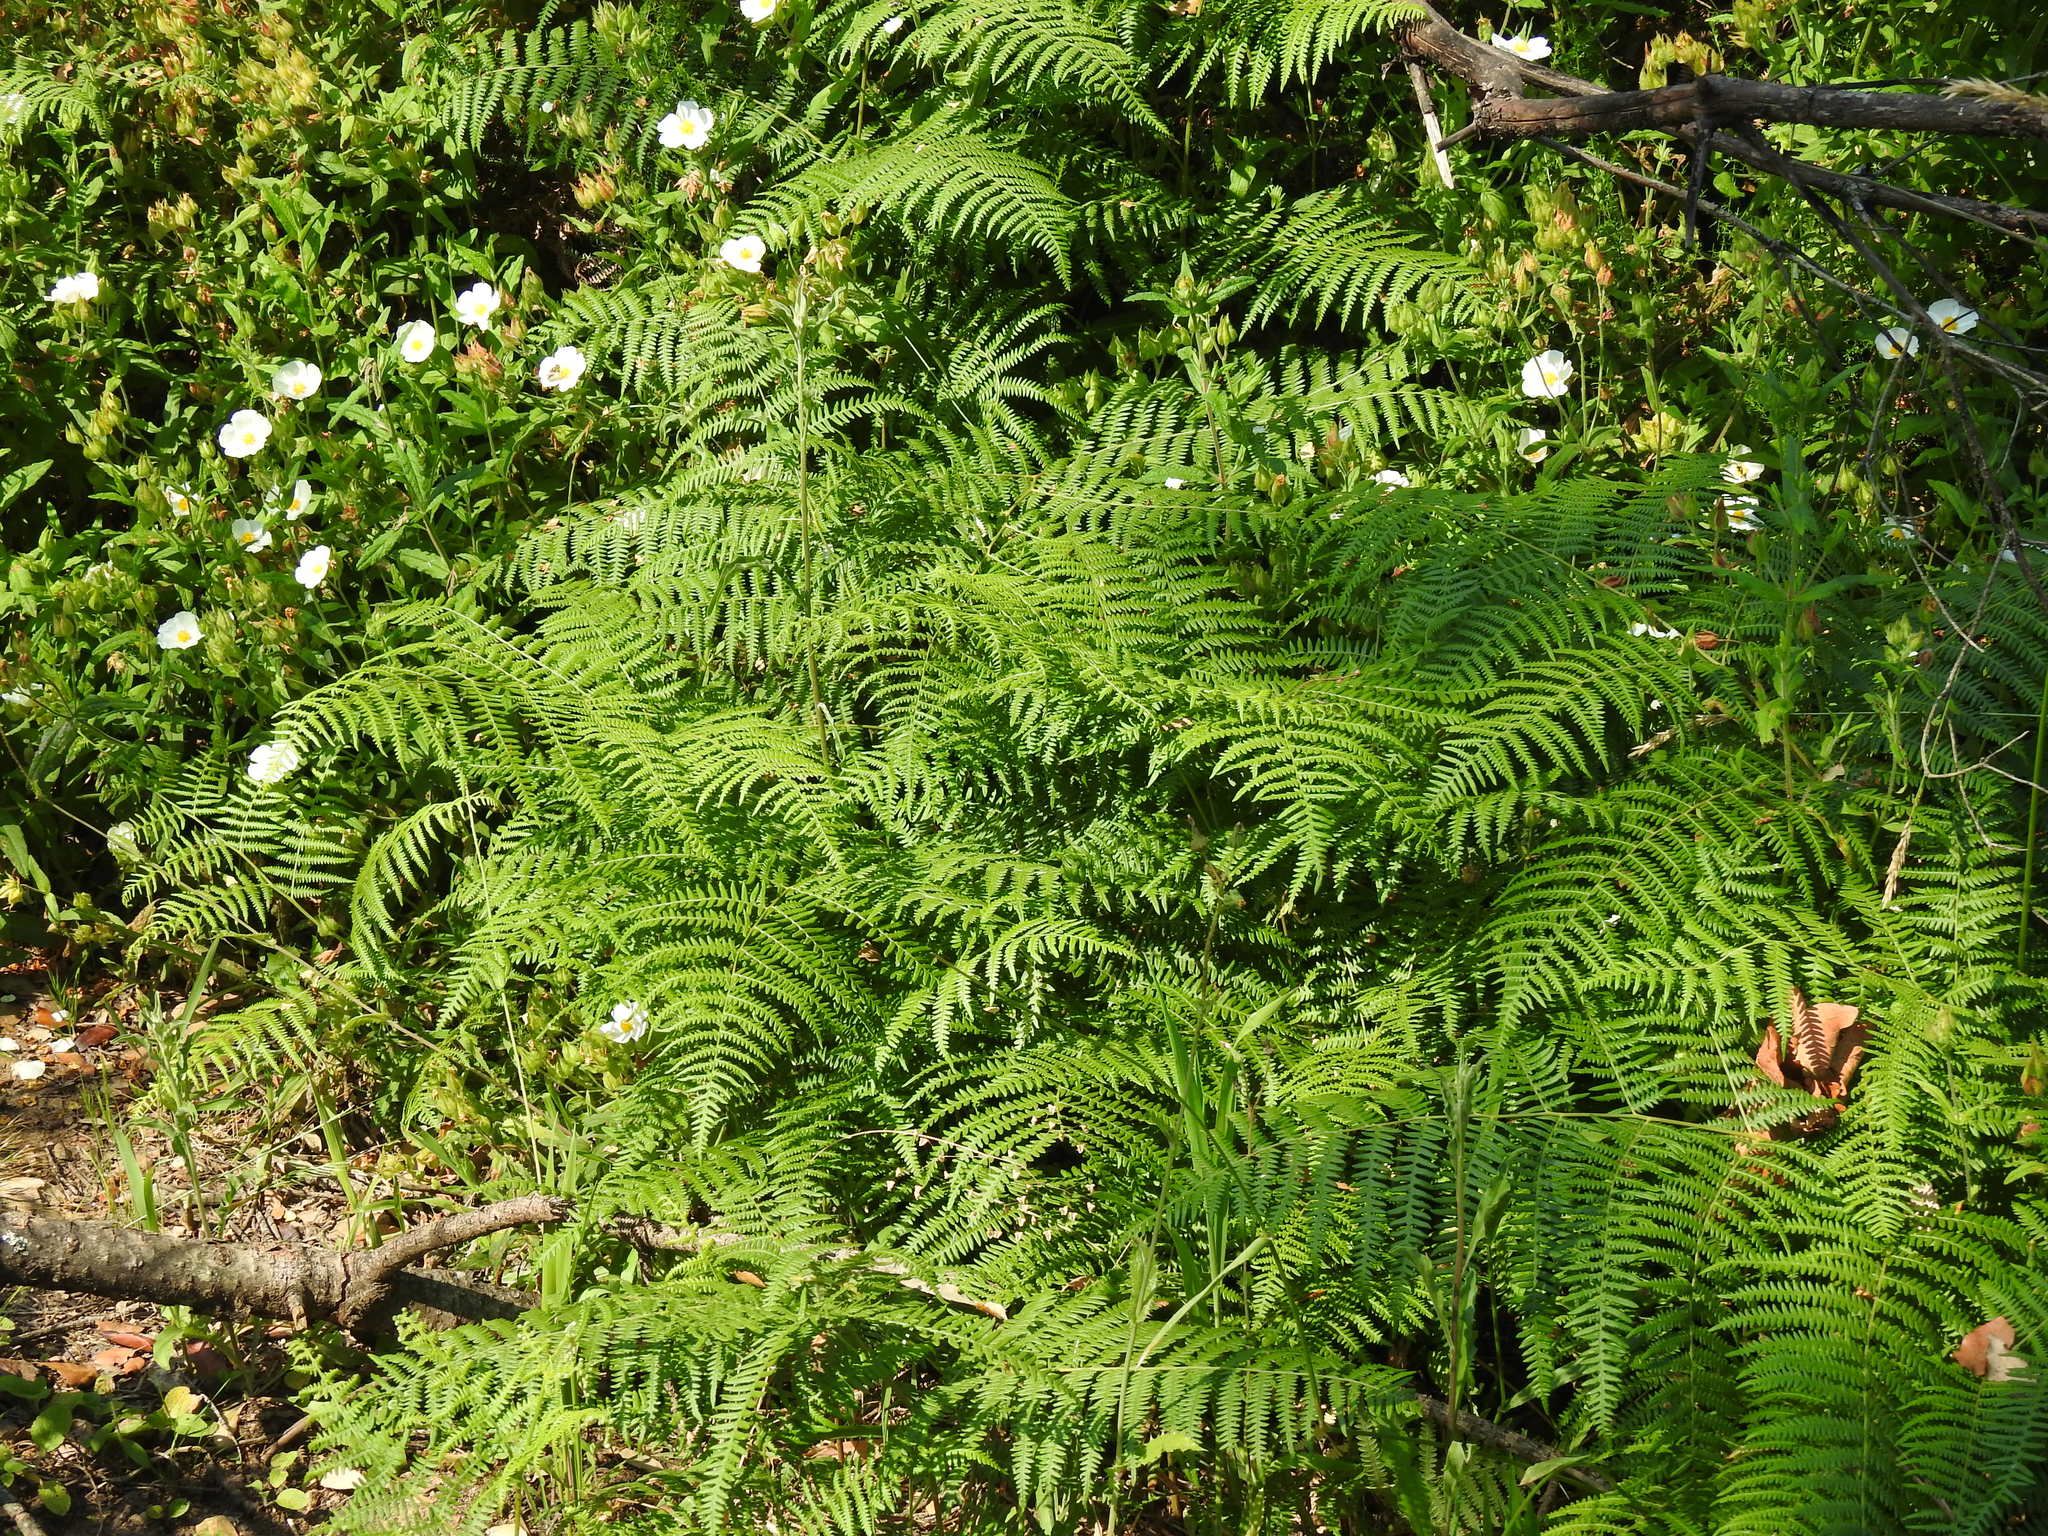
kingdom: Plantae
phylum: Tracheophyta
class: Polypodiopsida
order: Polypodiales
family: Dennstaedtiaceae
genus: Pteridium
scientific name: Pteridium aquilinum
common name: Bracken
